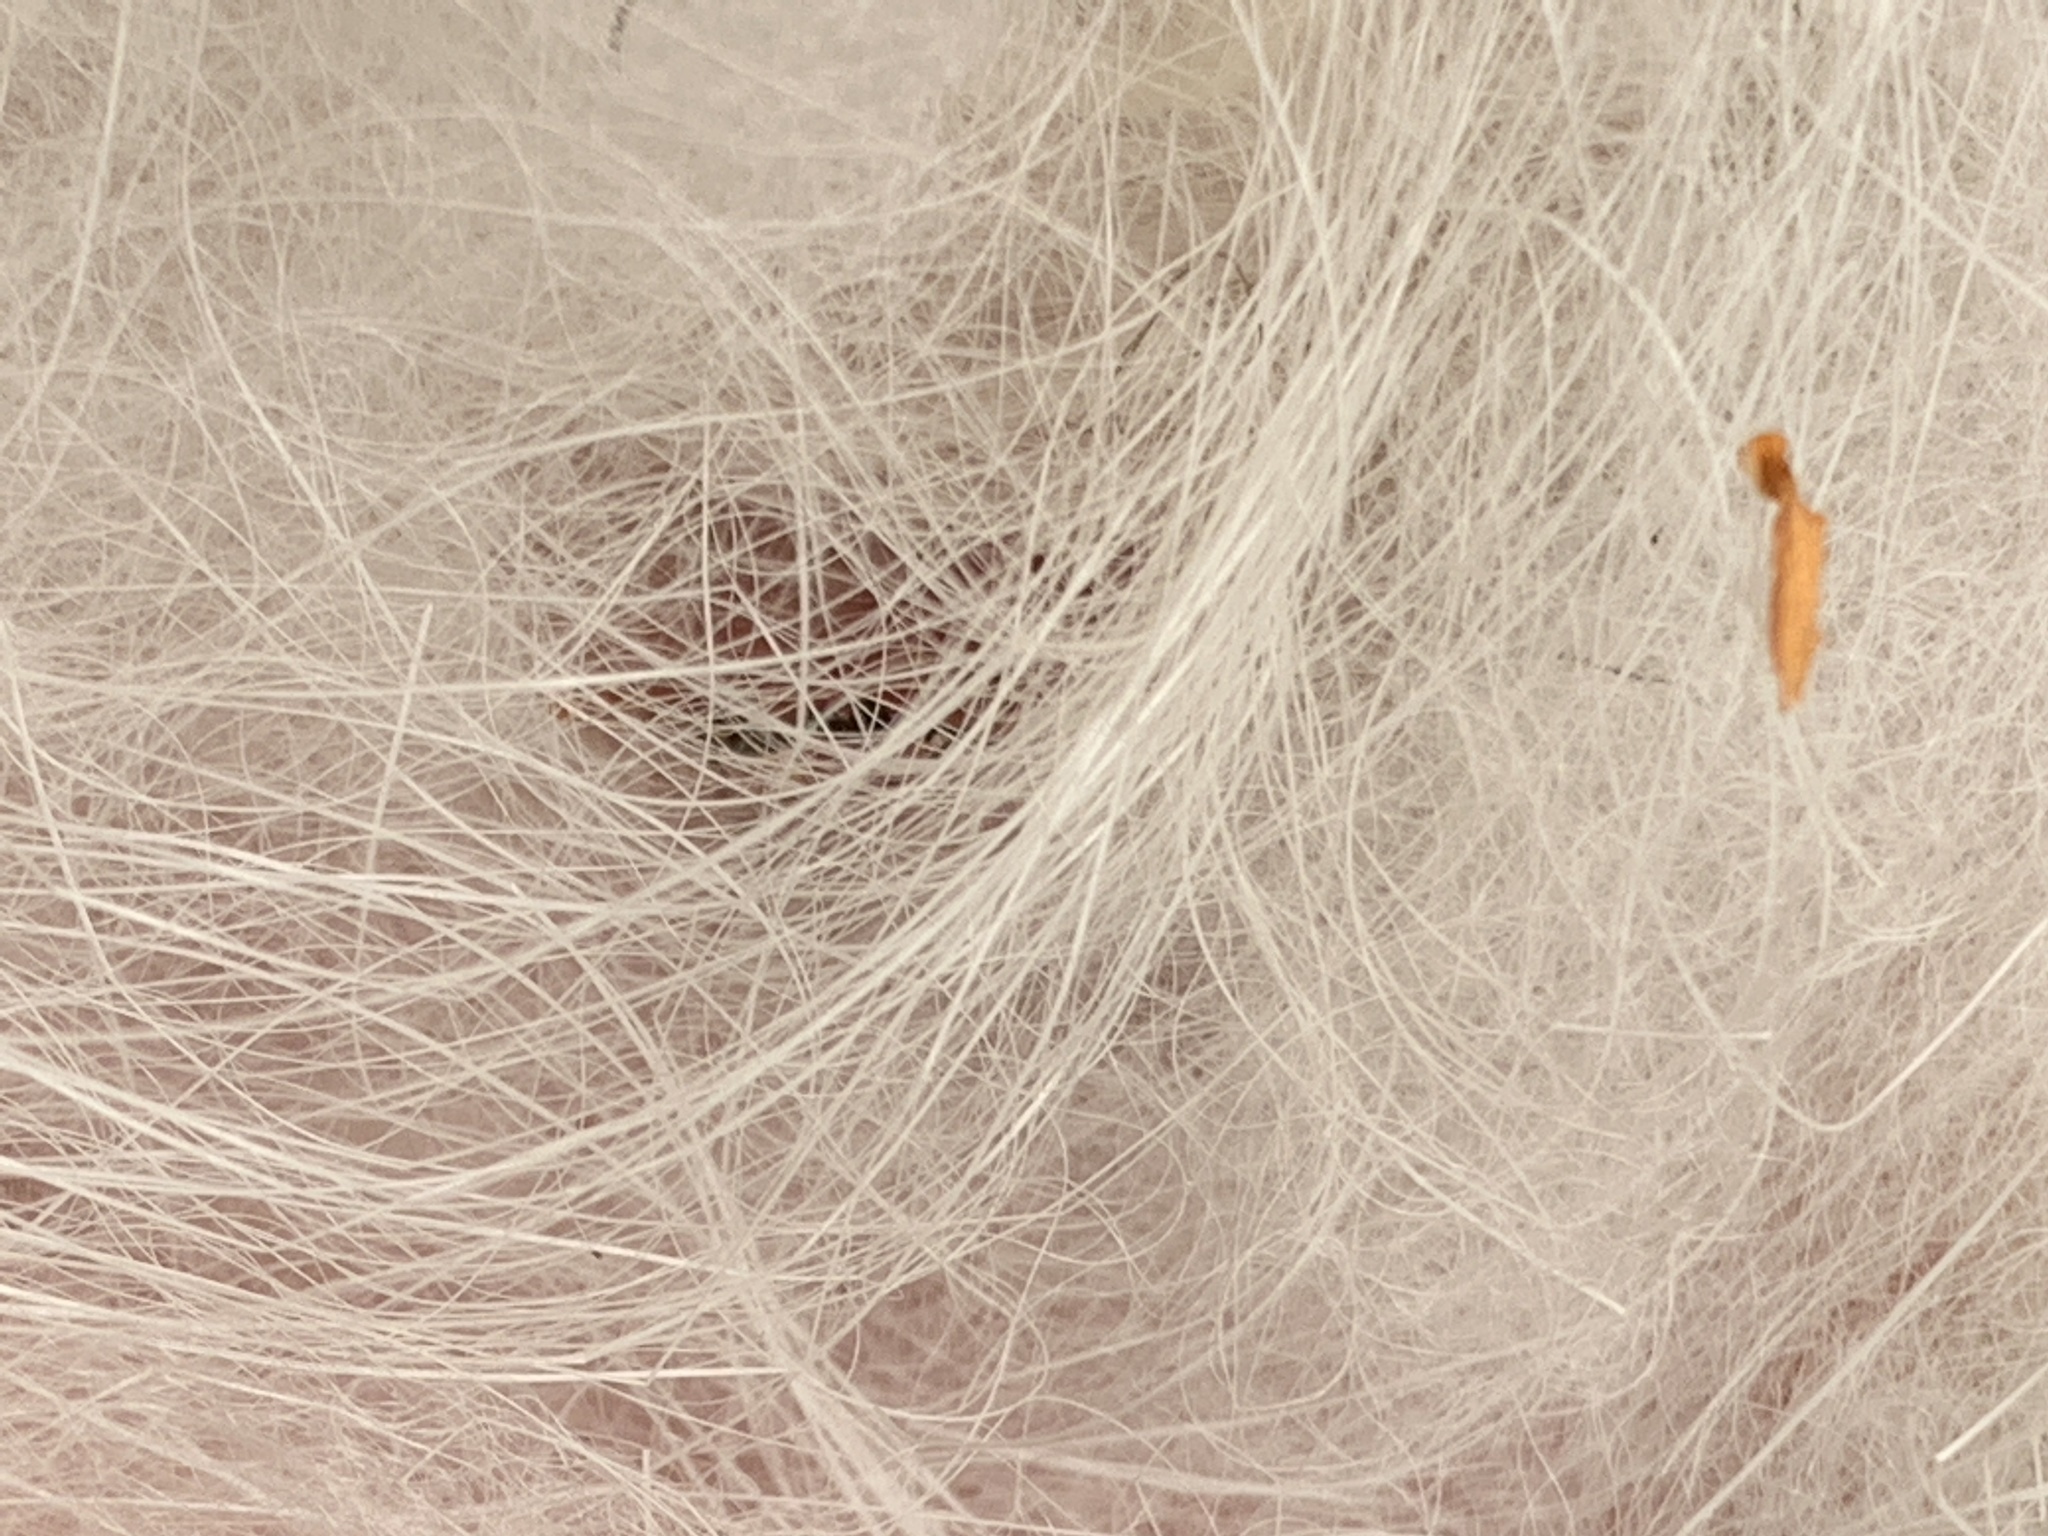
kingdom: Animalia
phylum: Chordata
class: Mammalia
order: Artiodactyla
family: Bovidae
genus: Oreamnos
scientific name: Oreamnos americanus
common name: Mountain goat
